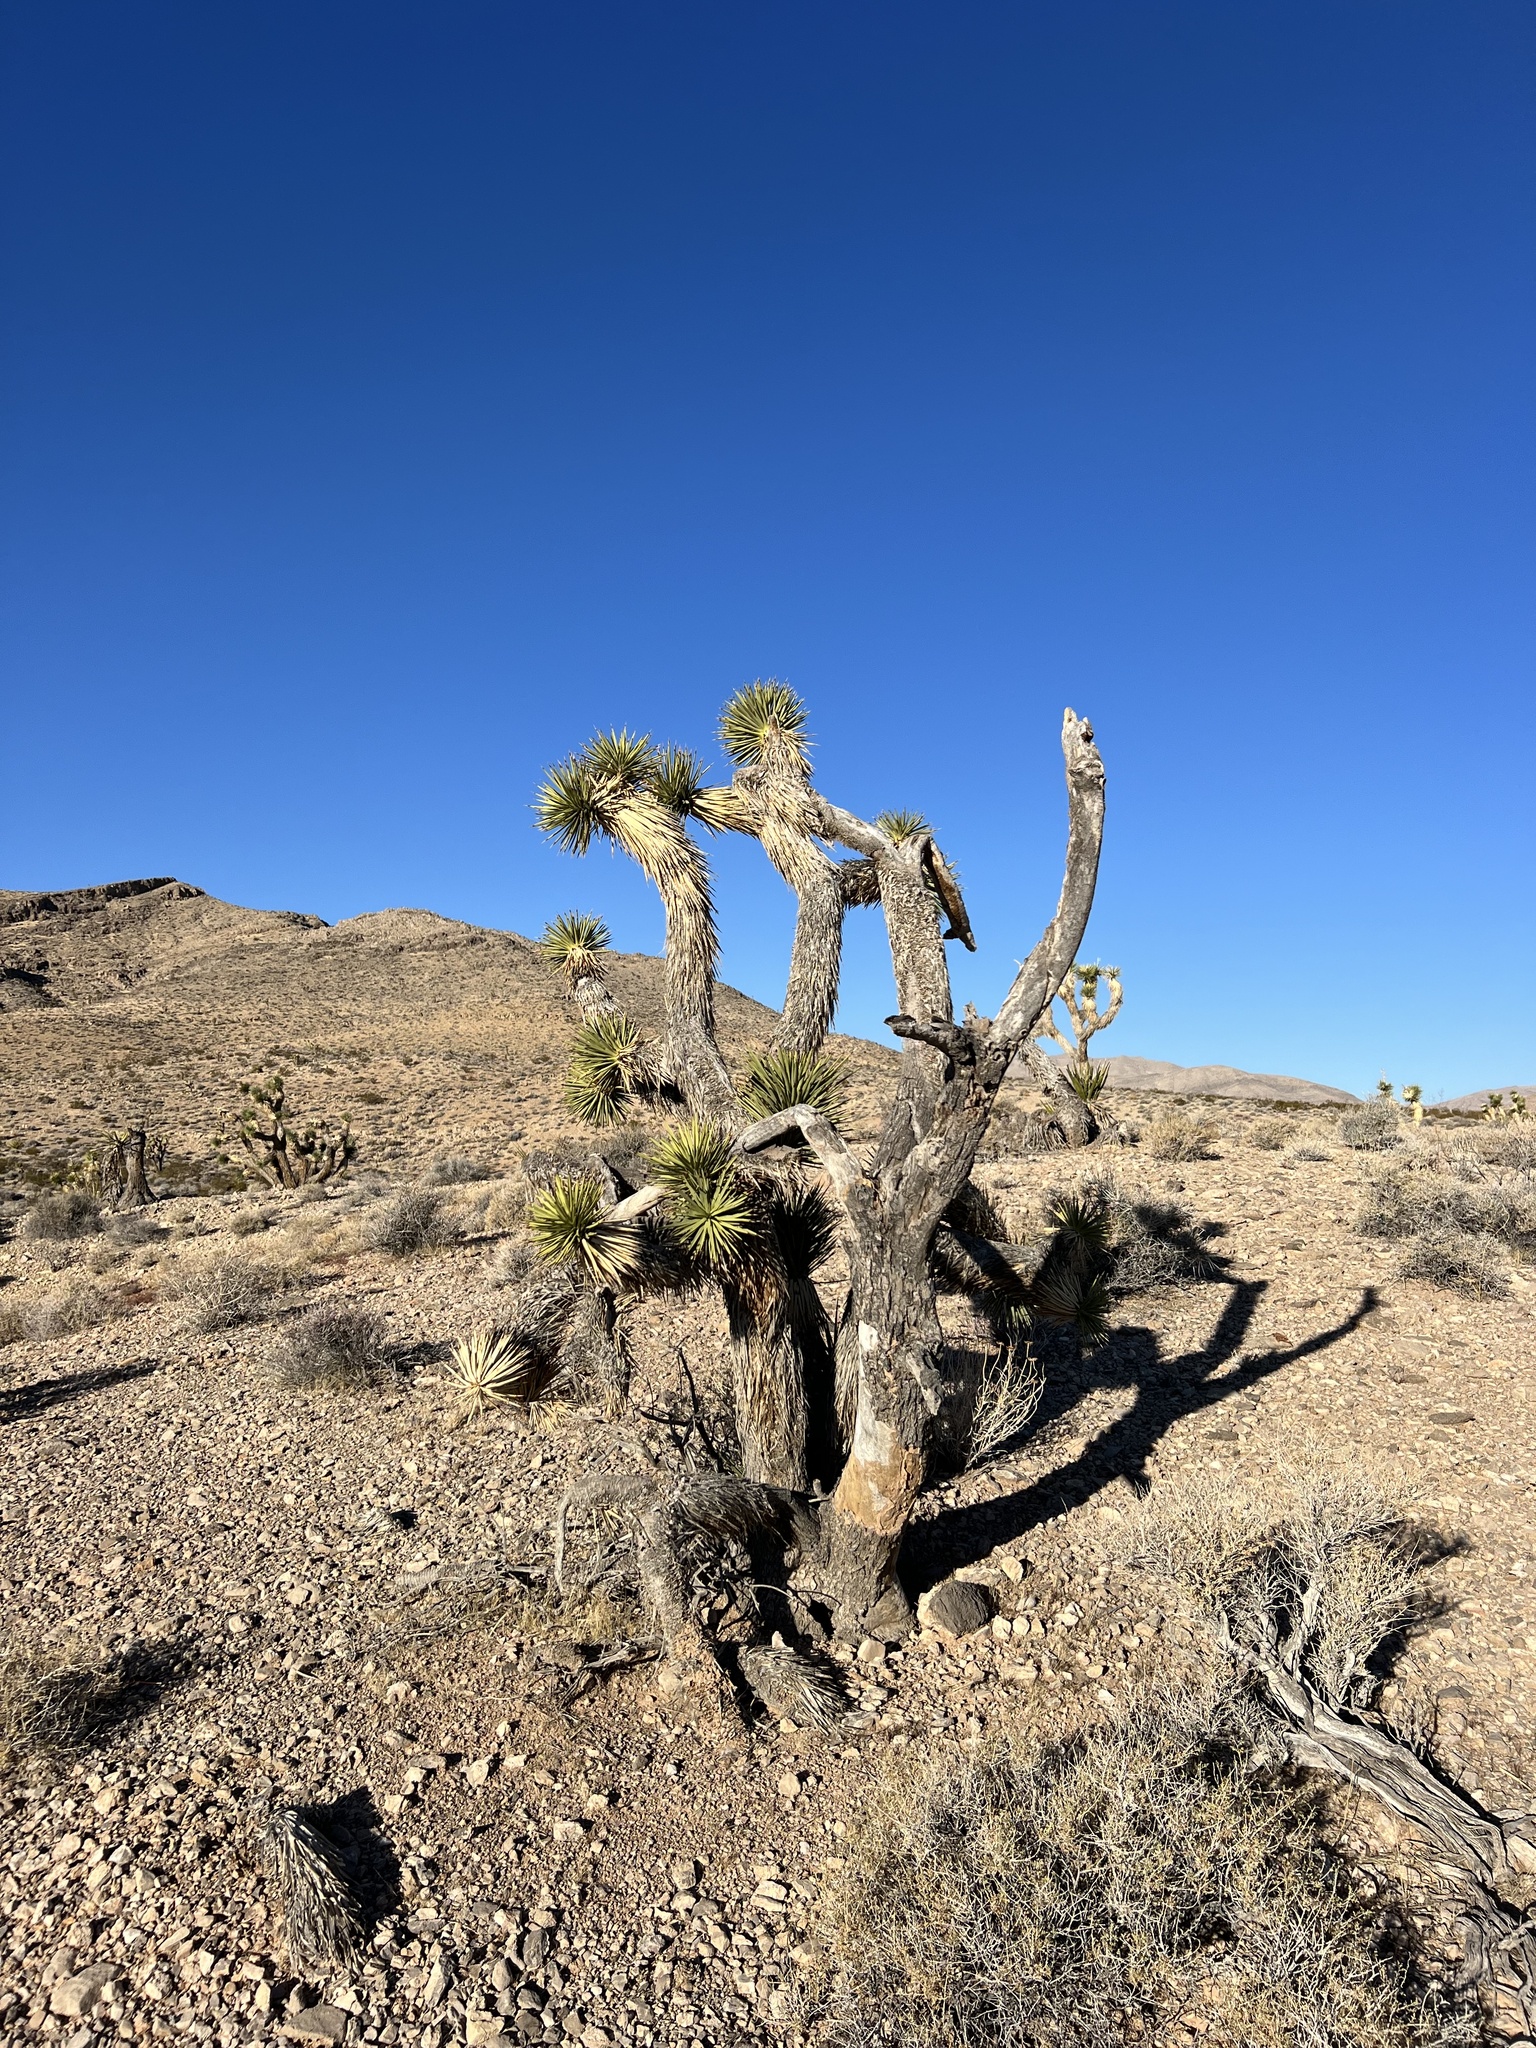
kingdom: Plantae
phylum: Tracheophyta
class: Liliopsida
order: Asparagales
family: Asparagaceae
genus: Yucca
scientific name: Yucca brevifolia
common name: Joshua tree
